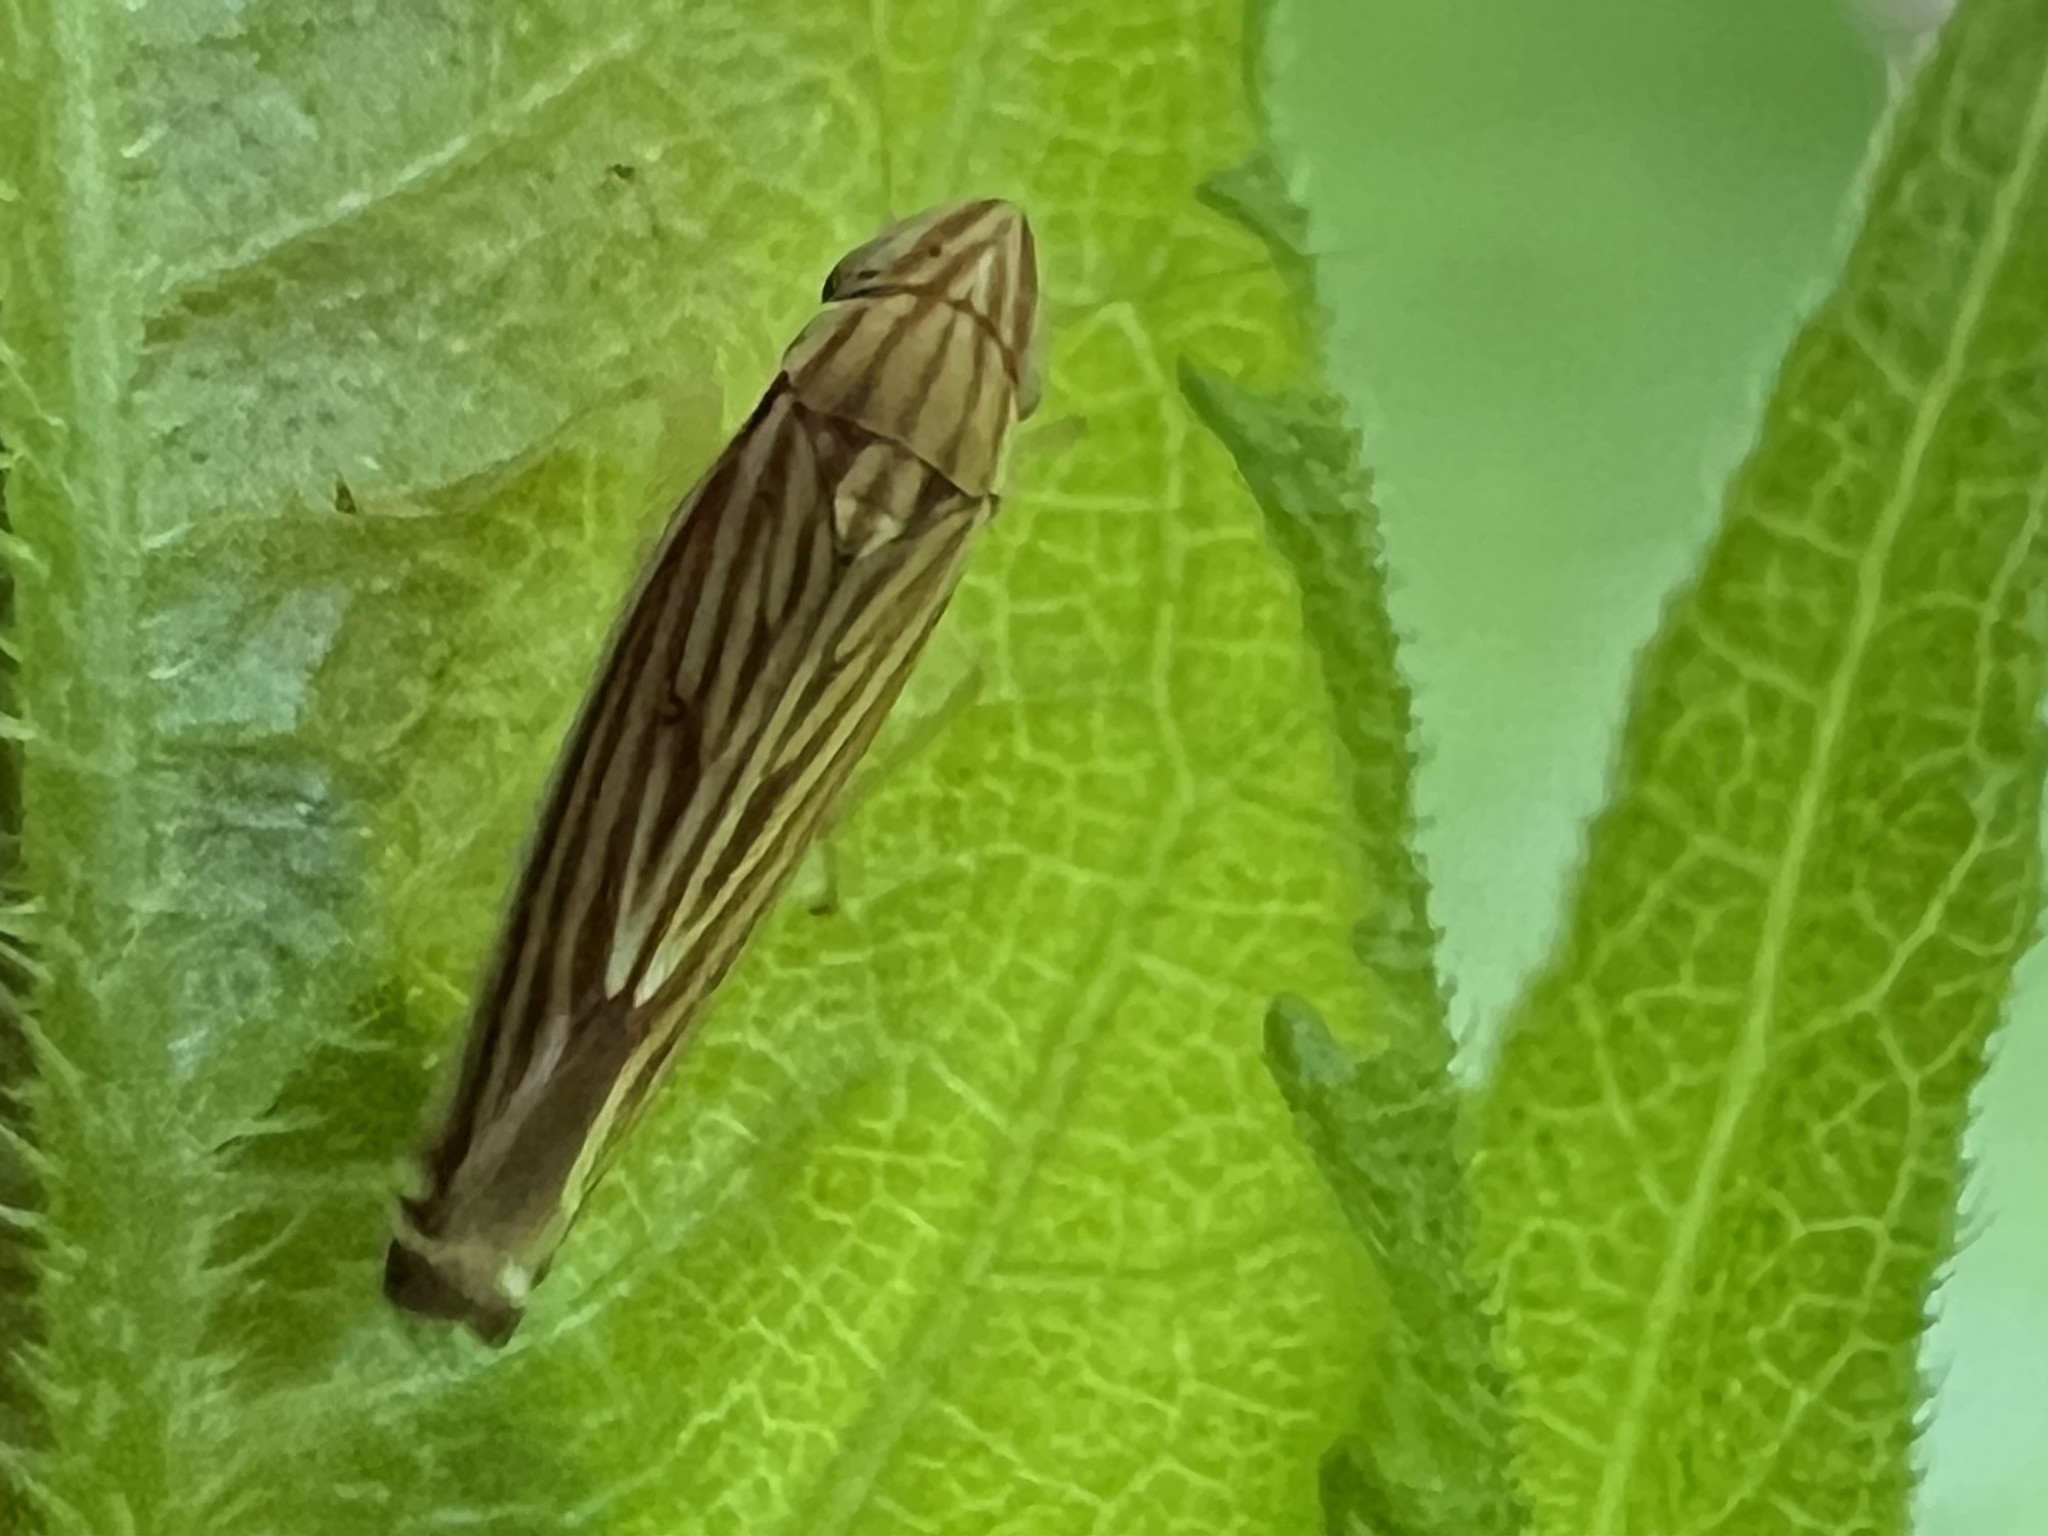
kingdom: Animalia
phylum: Arthropoda
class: Insecta
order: Hemiptera
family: Cicadellidae
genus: Sibovia
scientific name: Sibovia occatoria
